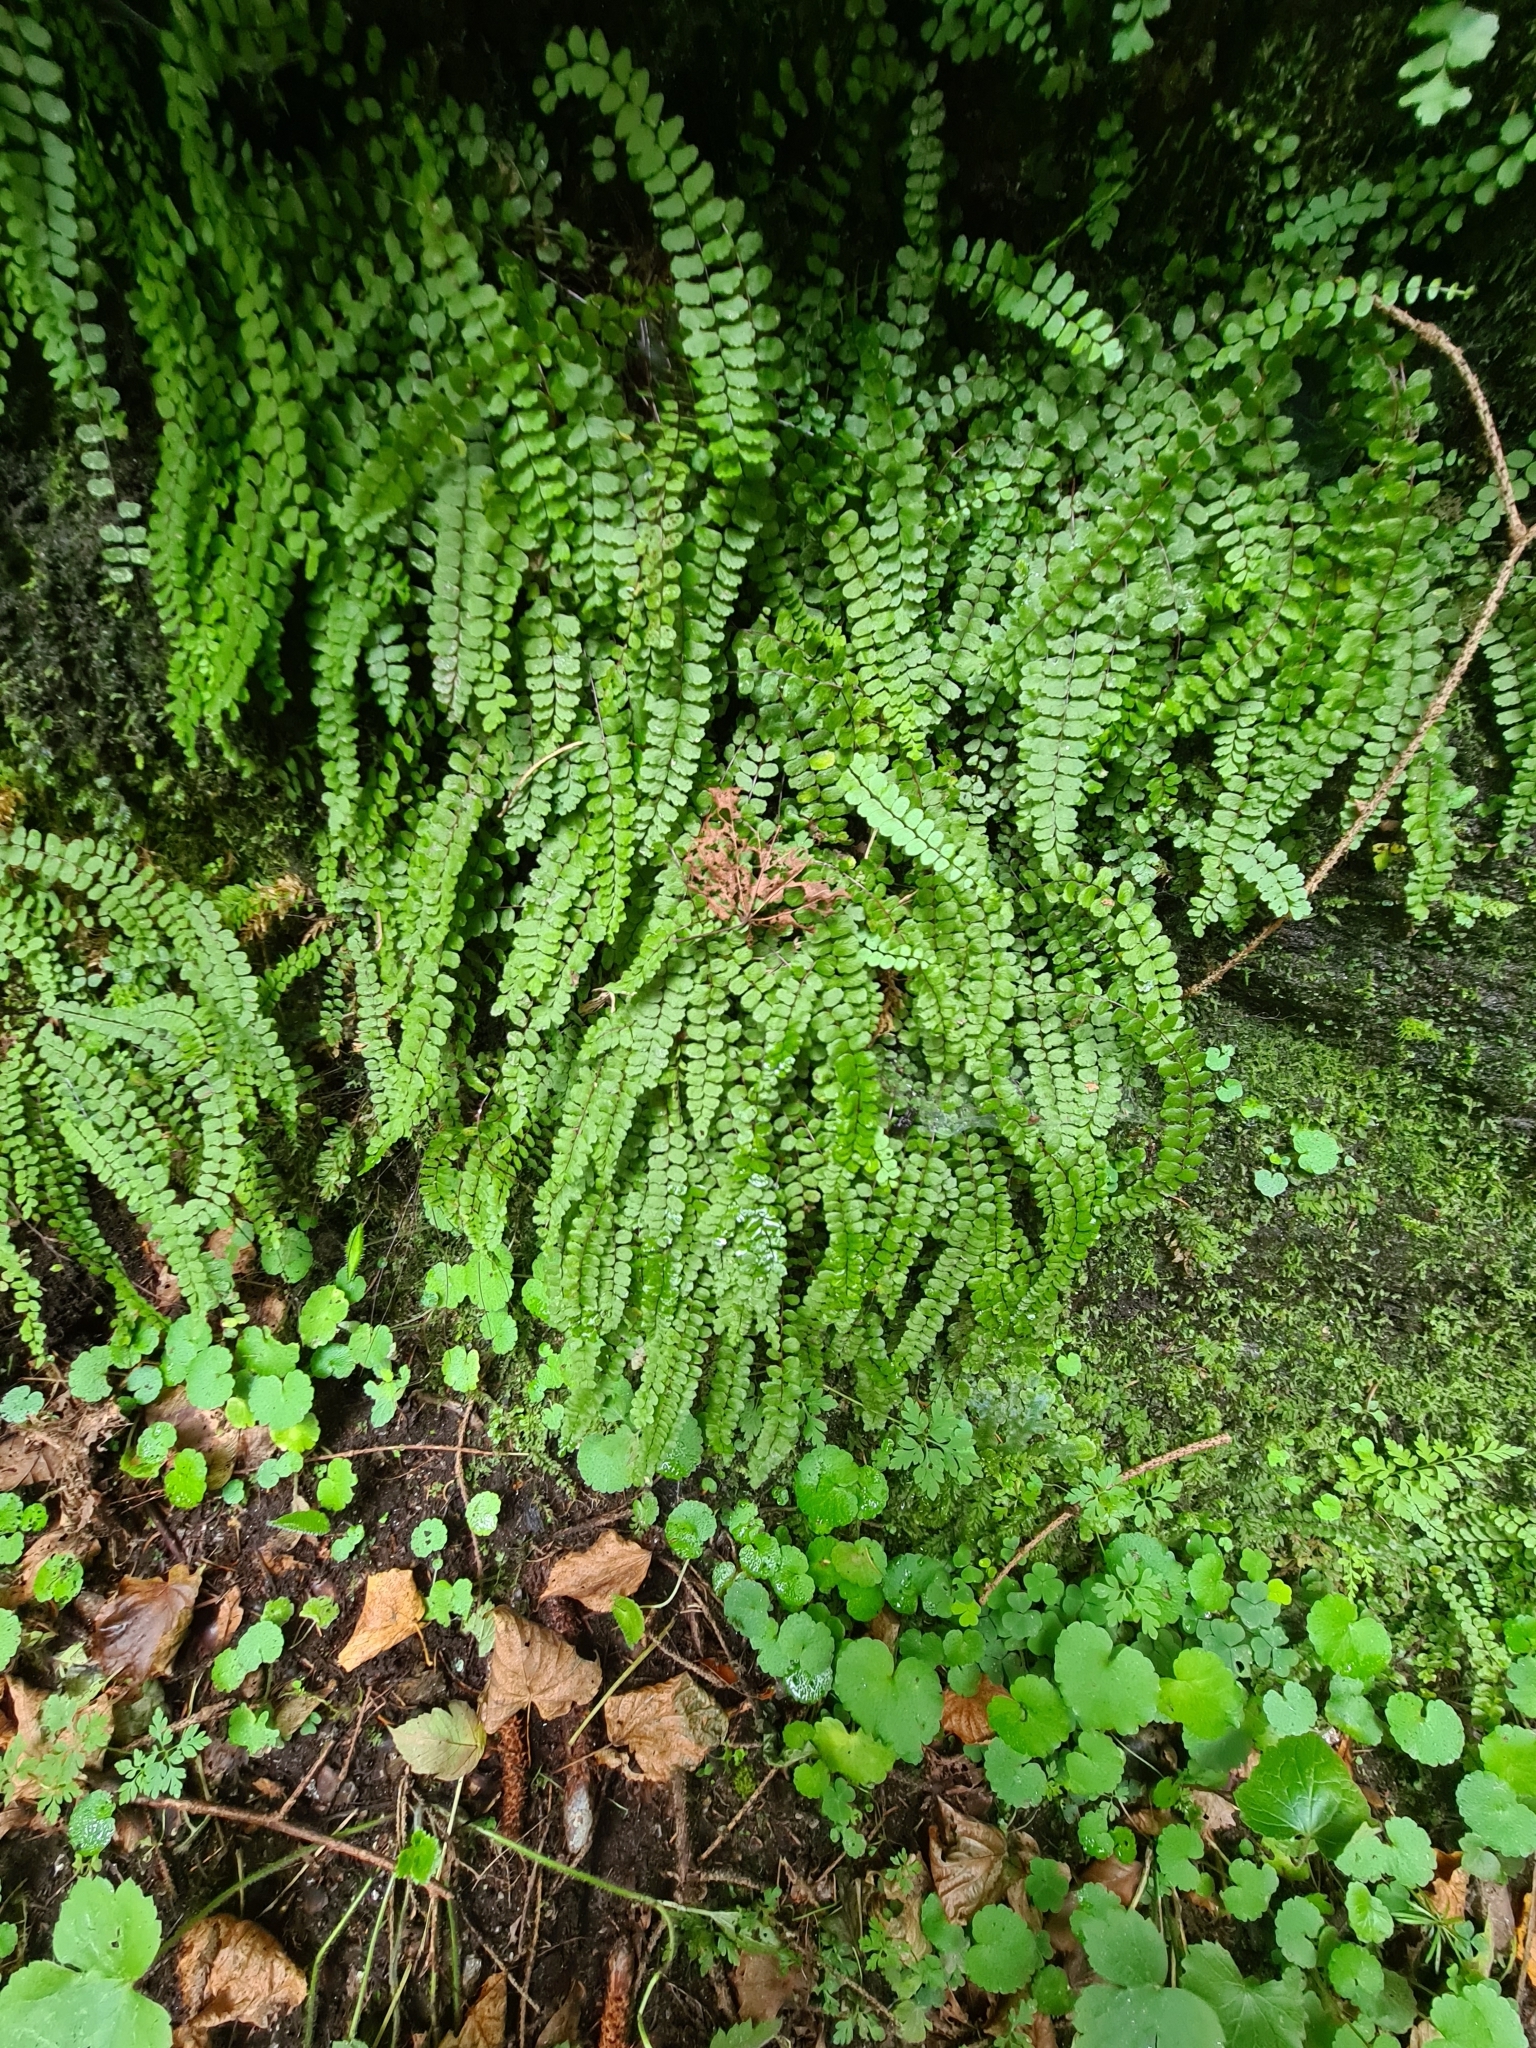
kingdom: Plantae
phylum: Tracheophyta
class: Polypodiopsida
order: Polypodiales
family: Aspleniaceae
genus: Asplenium
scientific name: Asplenium trichomanes
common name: Maidenhair spleenwort
